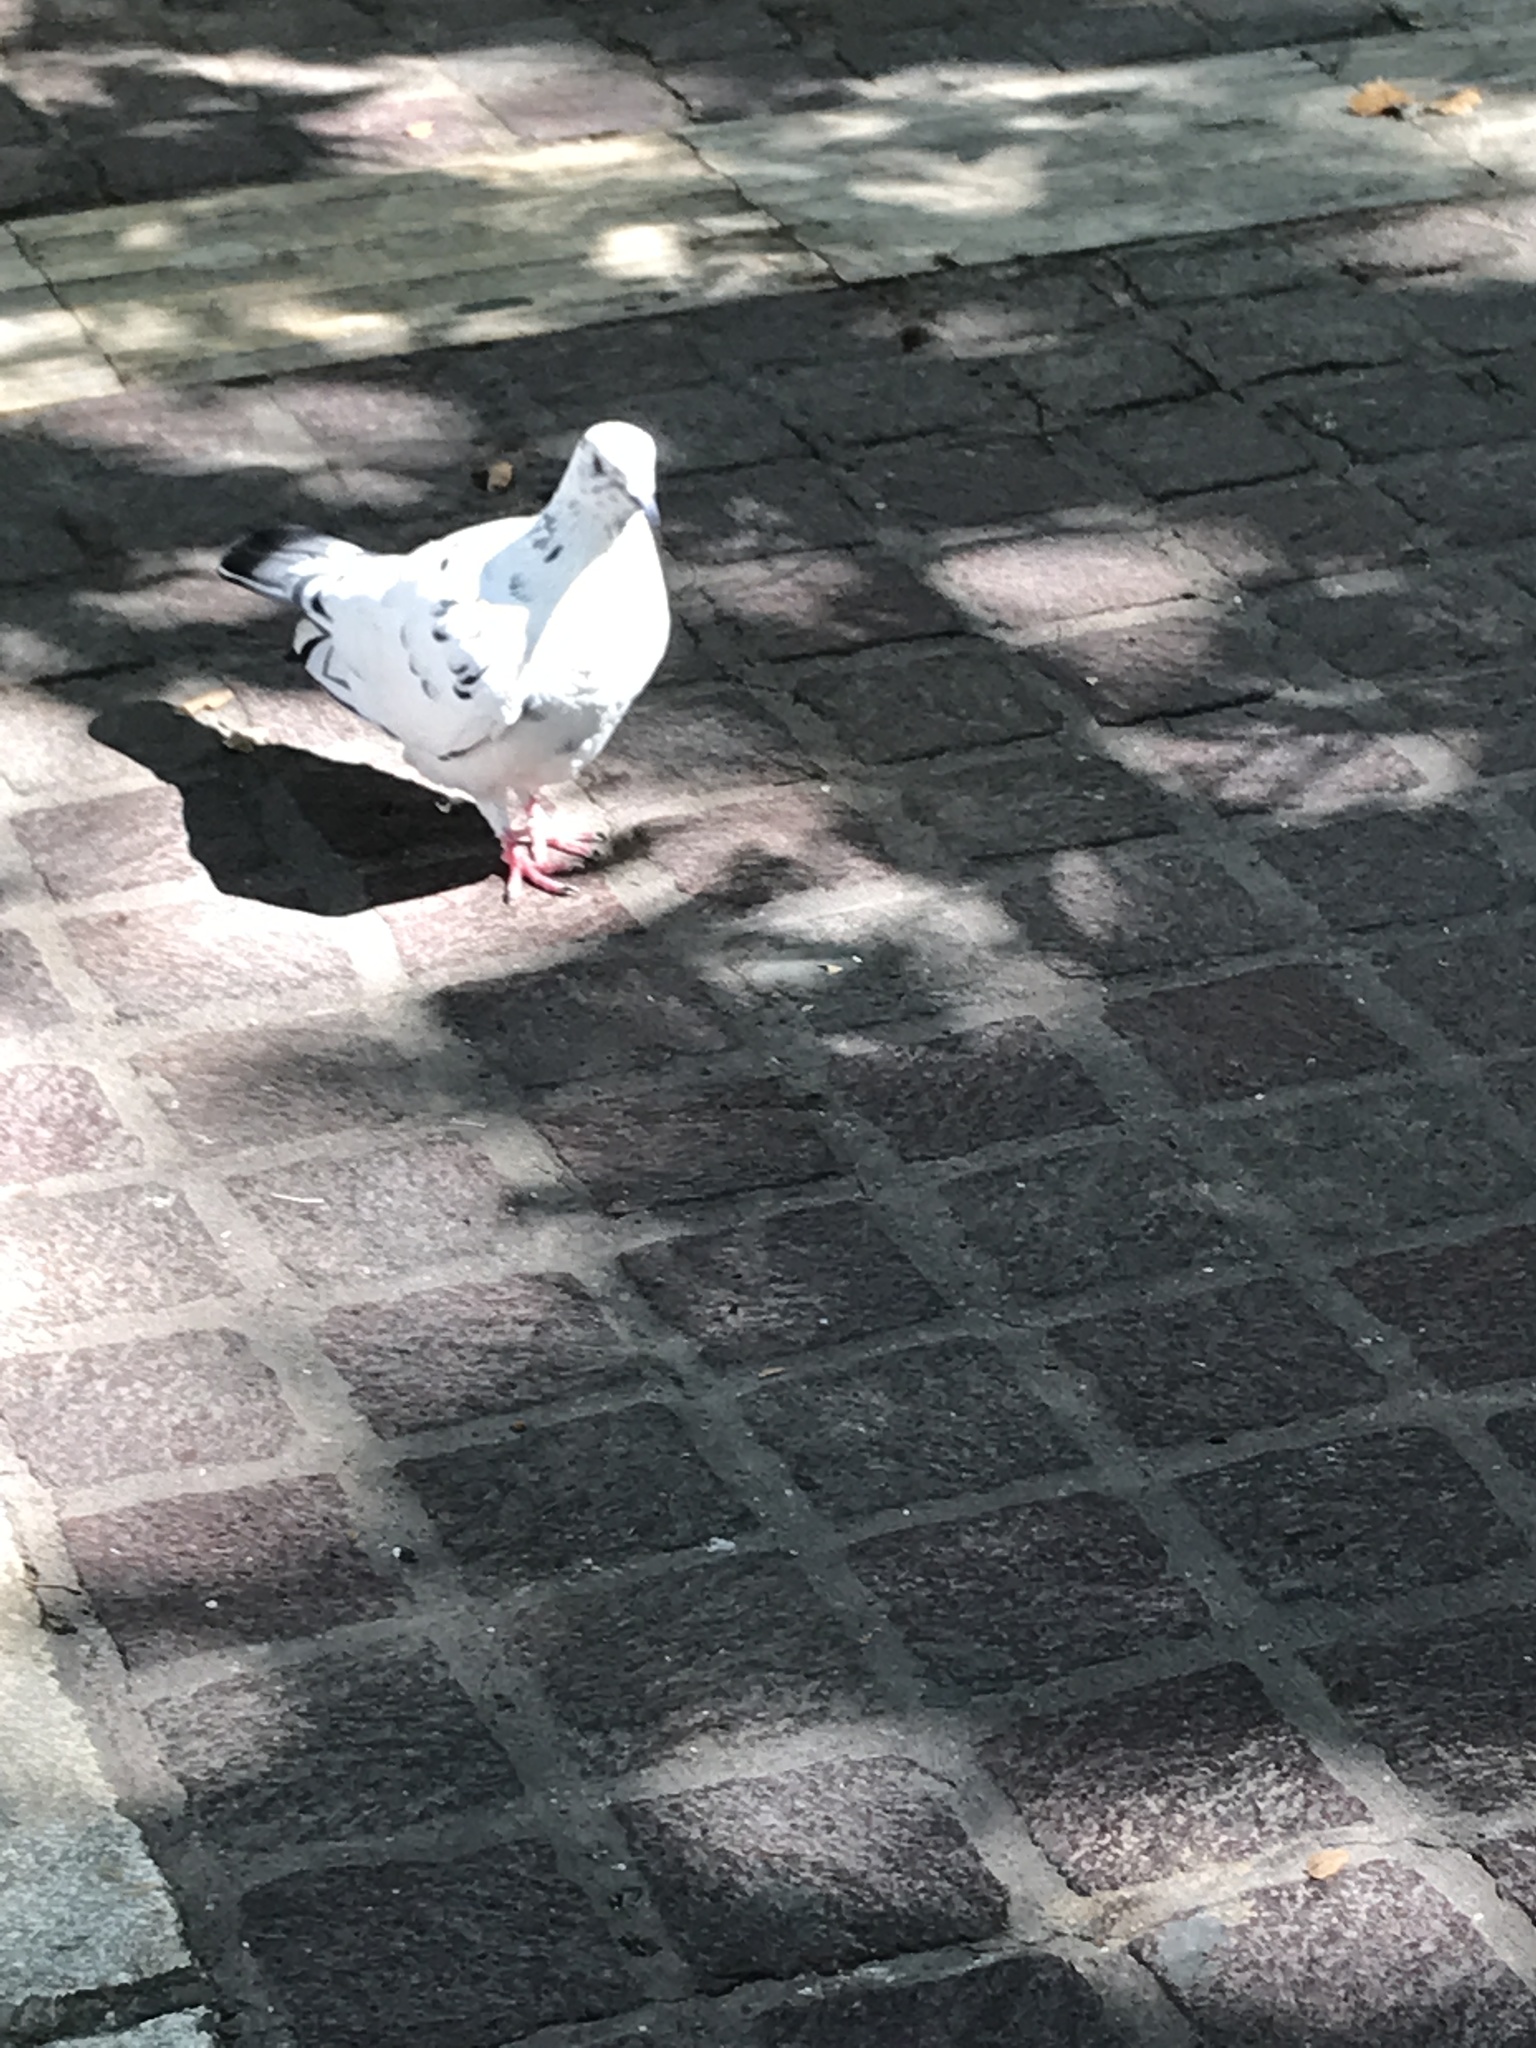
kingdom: Animalia
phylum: Chordata
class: Aves
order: Columbiformes
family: Columbidae
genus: Columba
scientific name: Columba livia
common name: Rock pigeon
